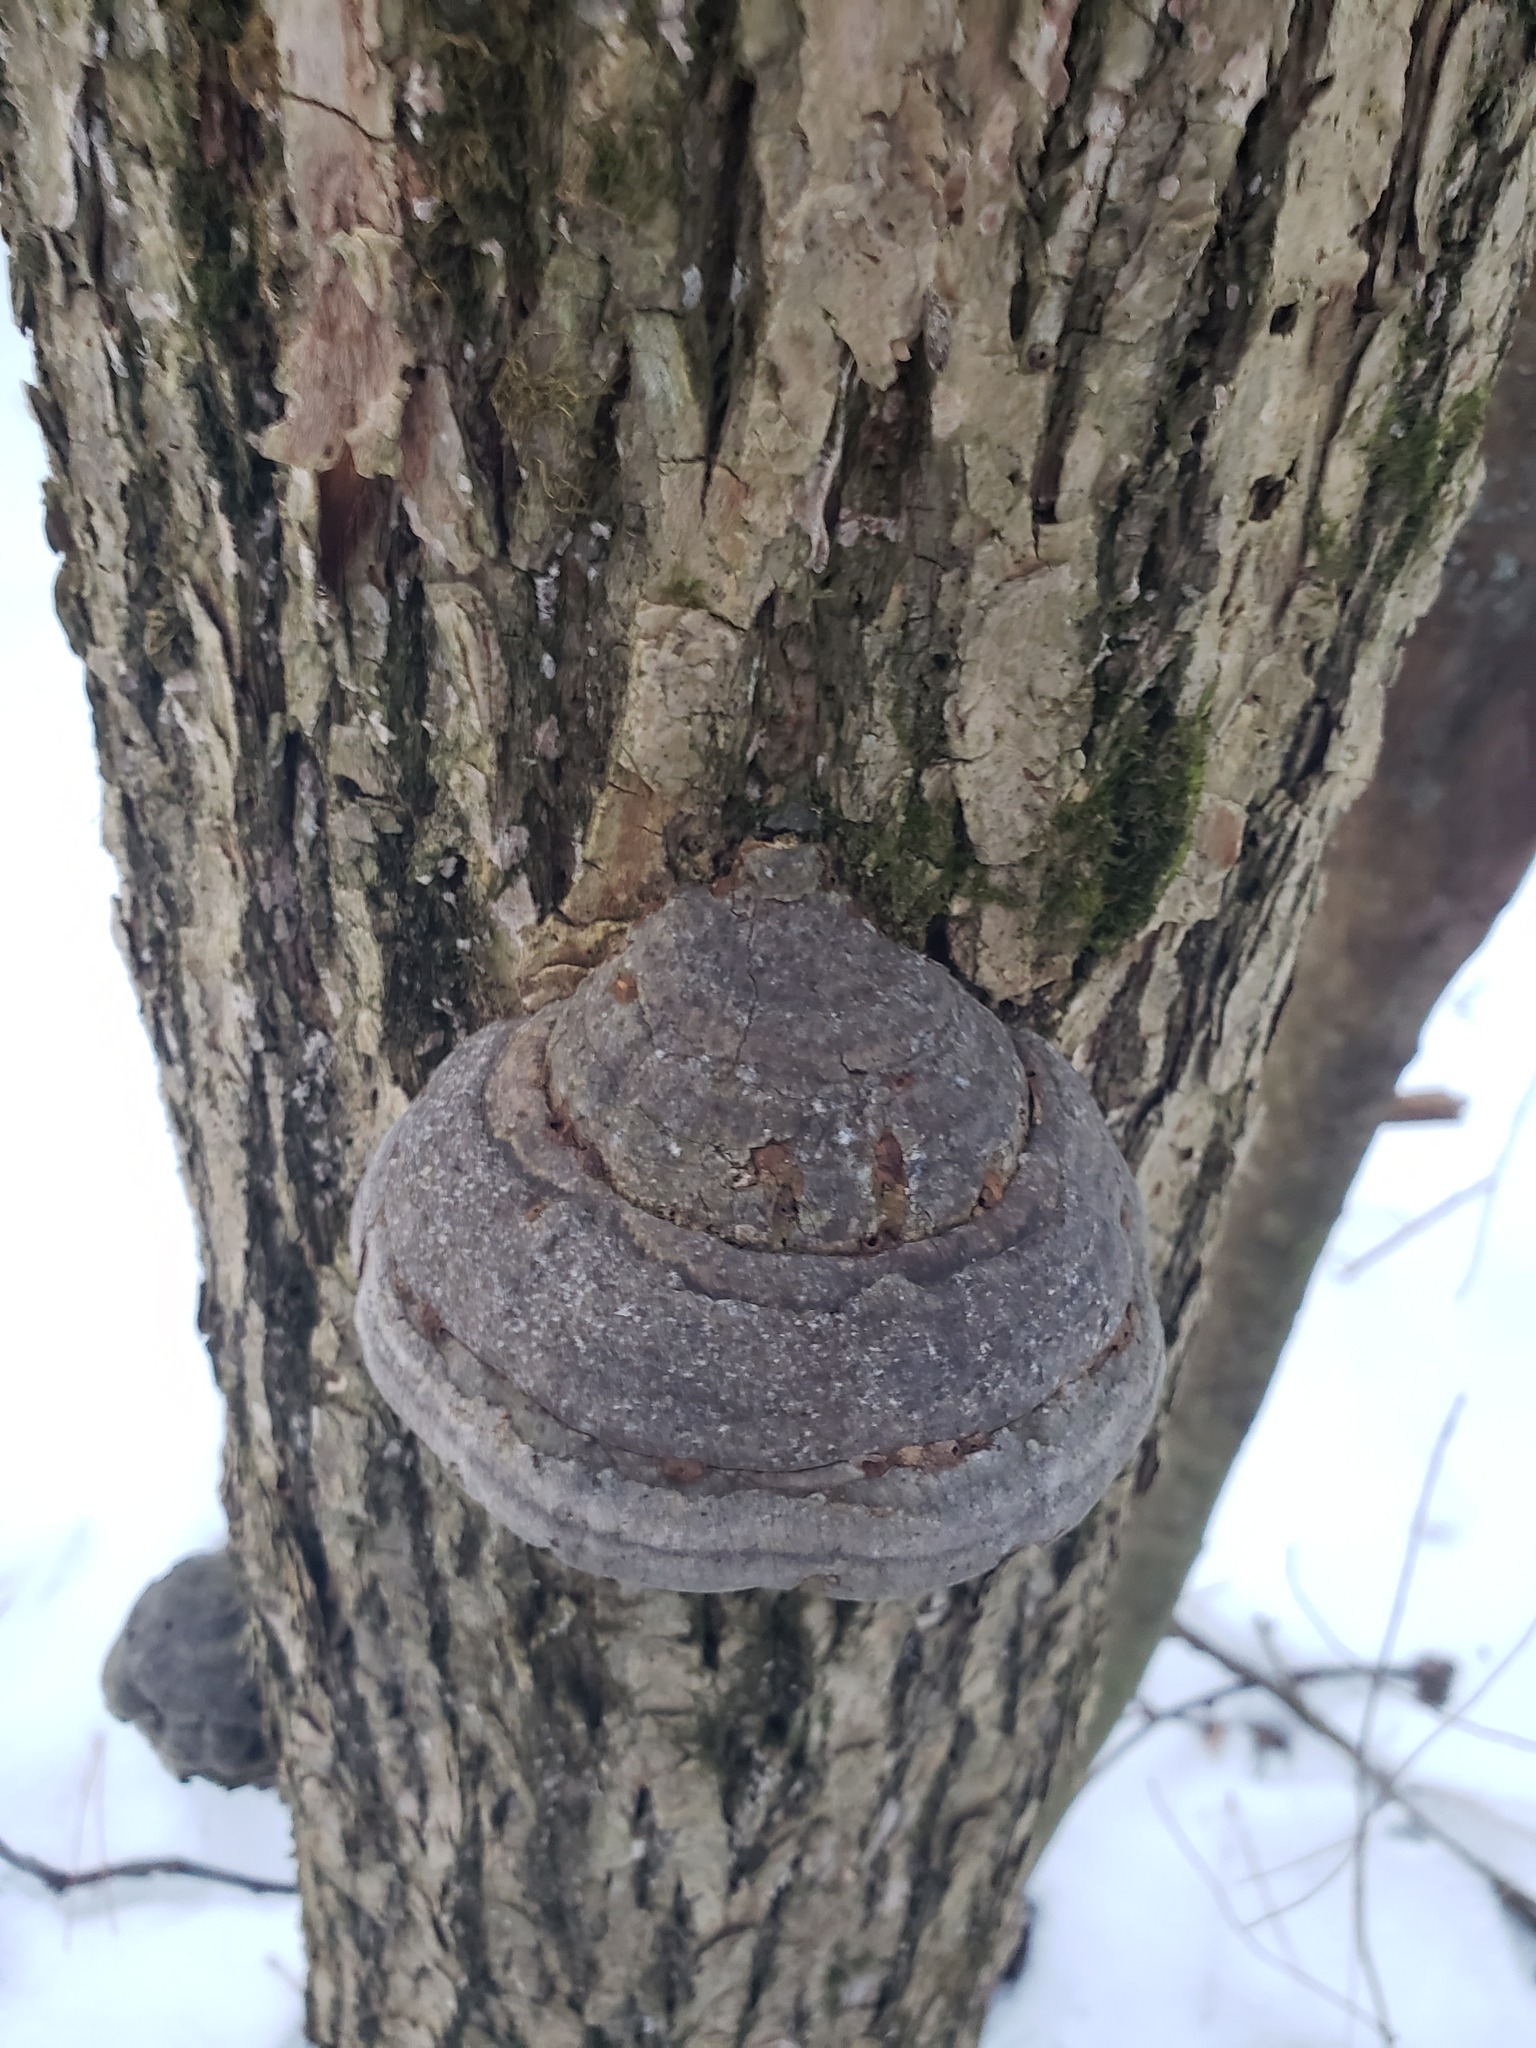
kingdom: Fungi
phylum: Basidiomycota
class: Agaricomycetes
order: Polyporales
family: Polyporaceae
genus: Fomes
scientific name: Fomes fomentarius
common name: Hoof fungus
